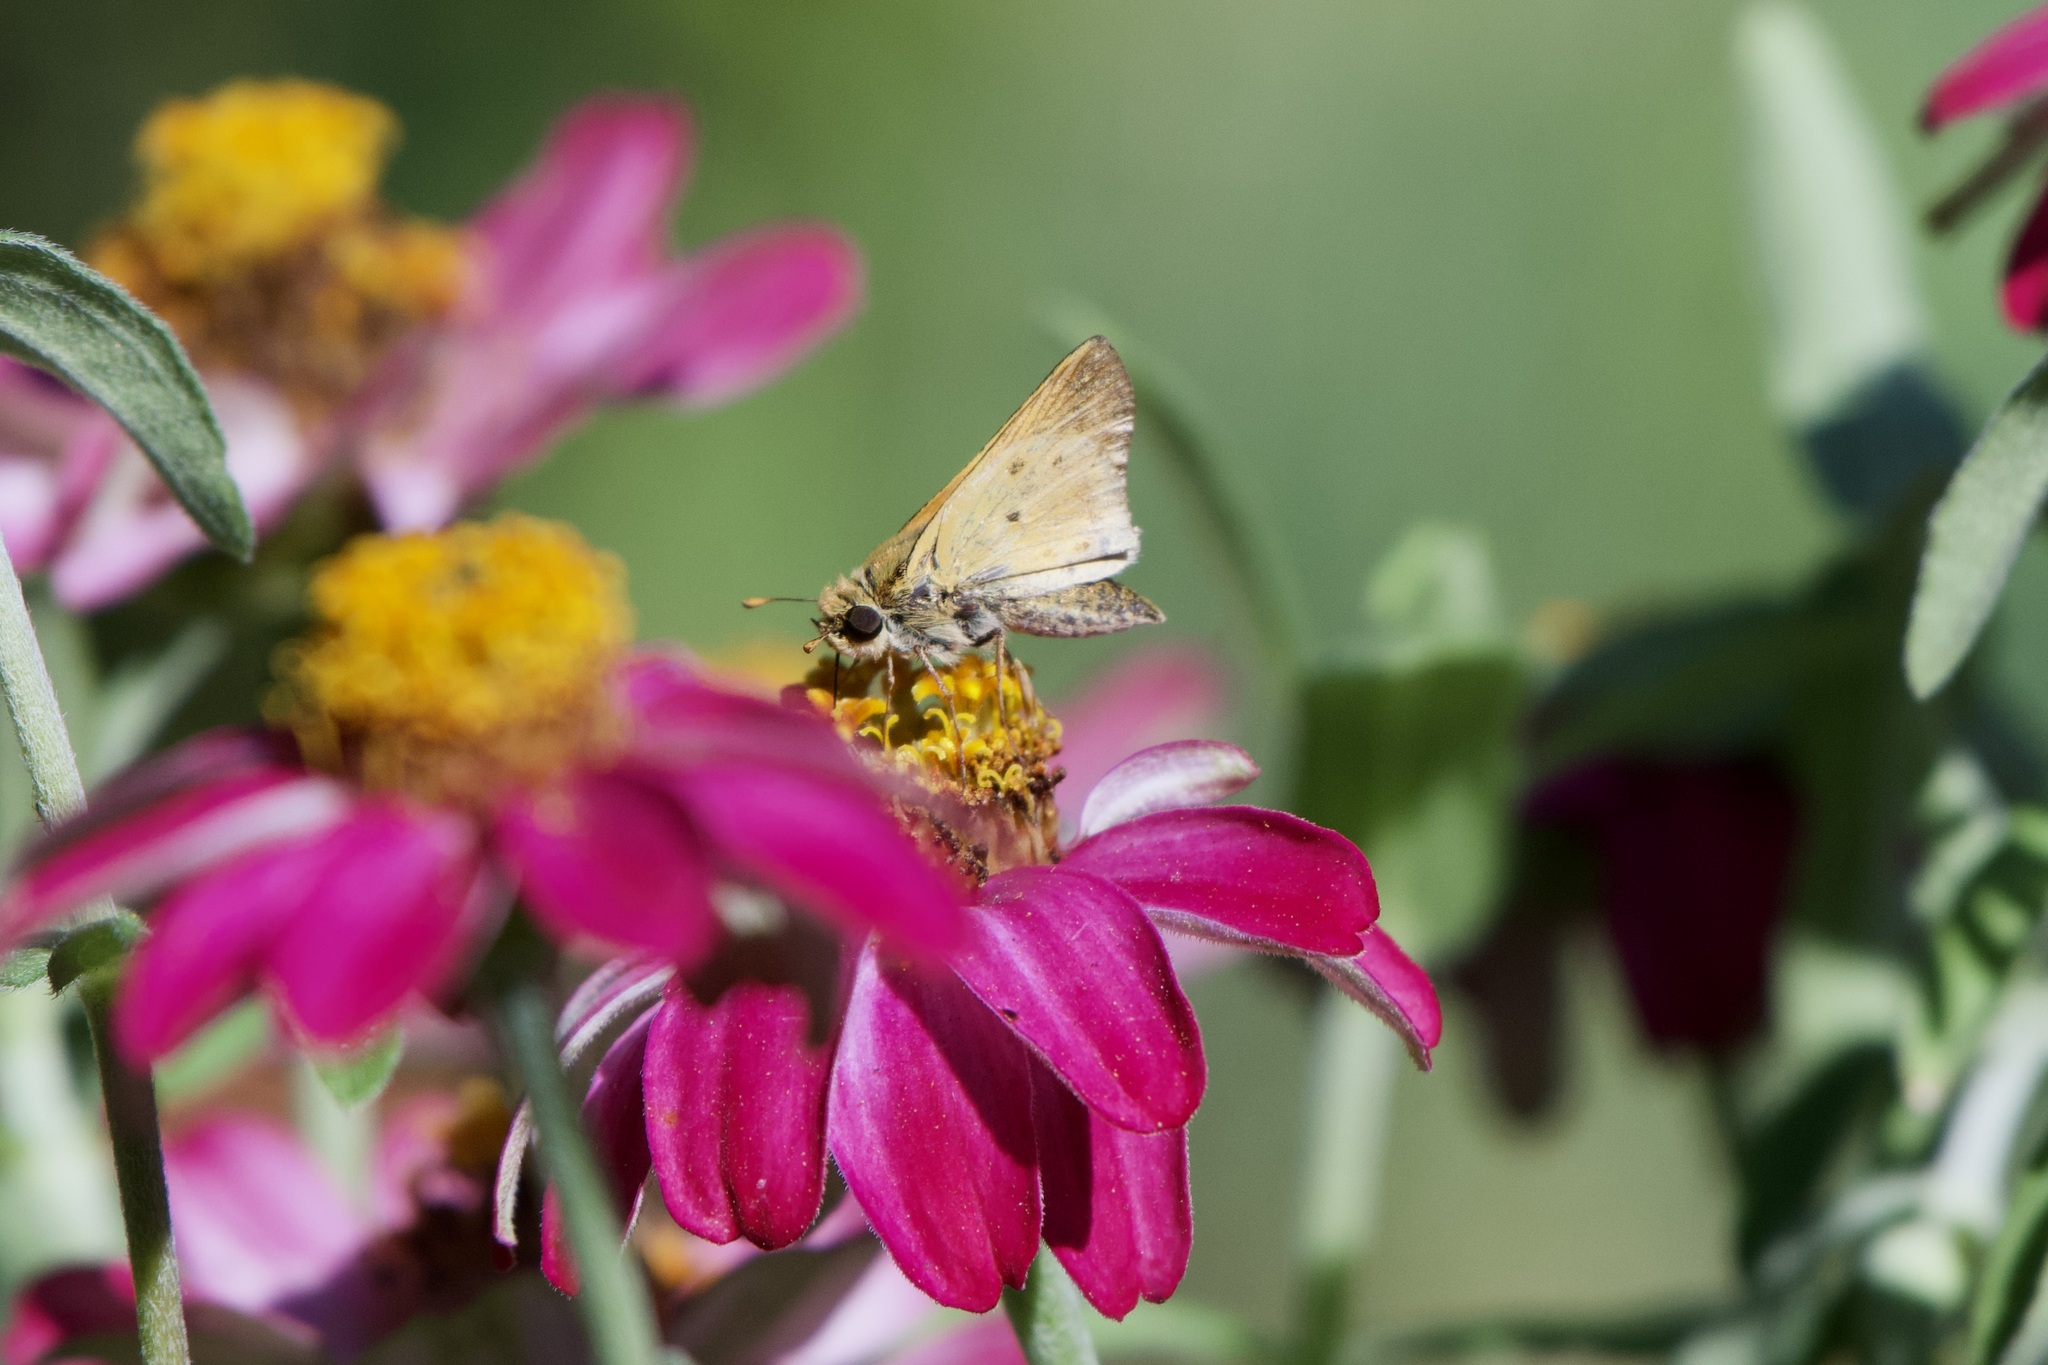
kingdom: Animalia
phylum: Arthropoda
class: Insecta
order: Lepidoptera
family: Hesperiidae
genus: Hylephila
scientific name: Hylephila phyleus
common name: Fiery skipper
